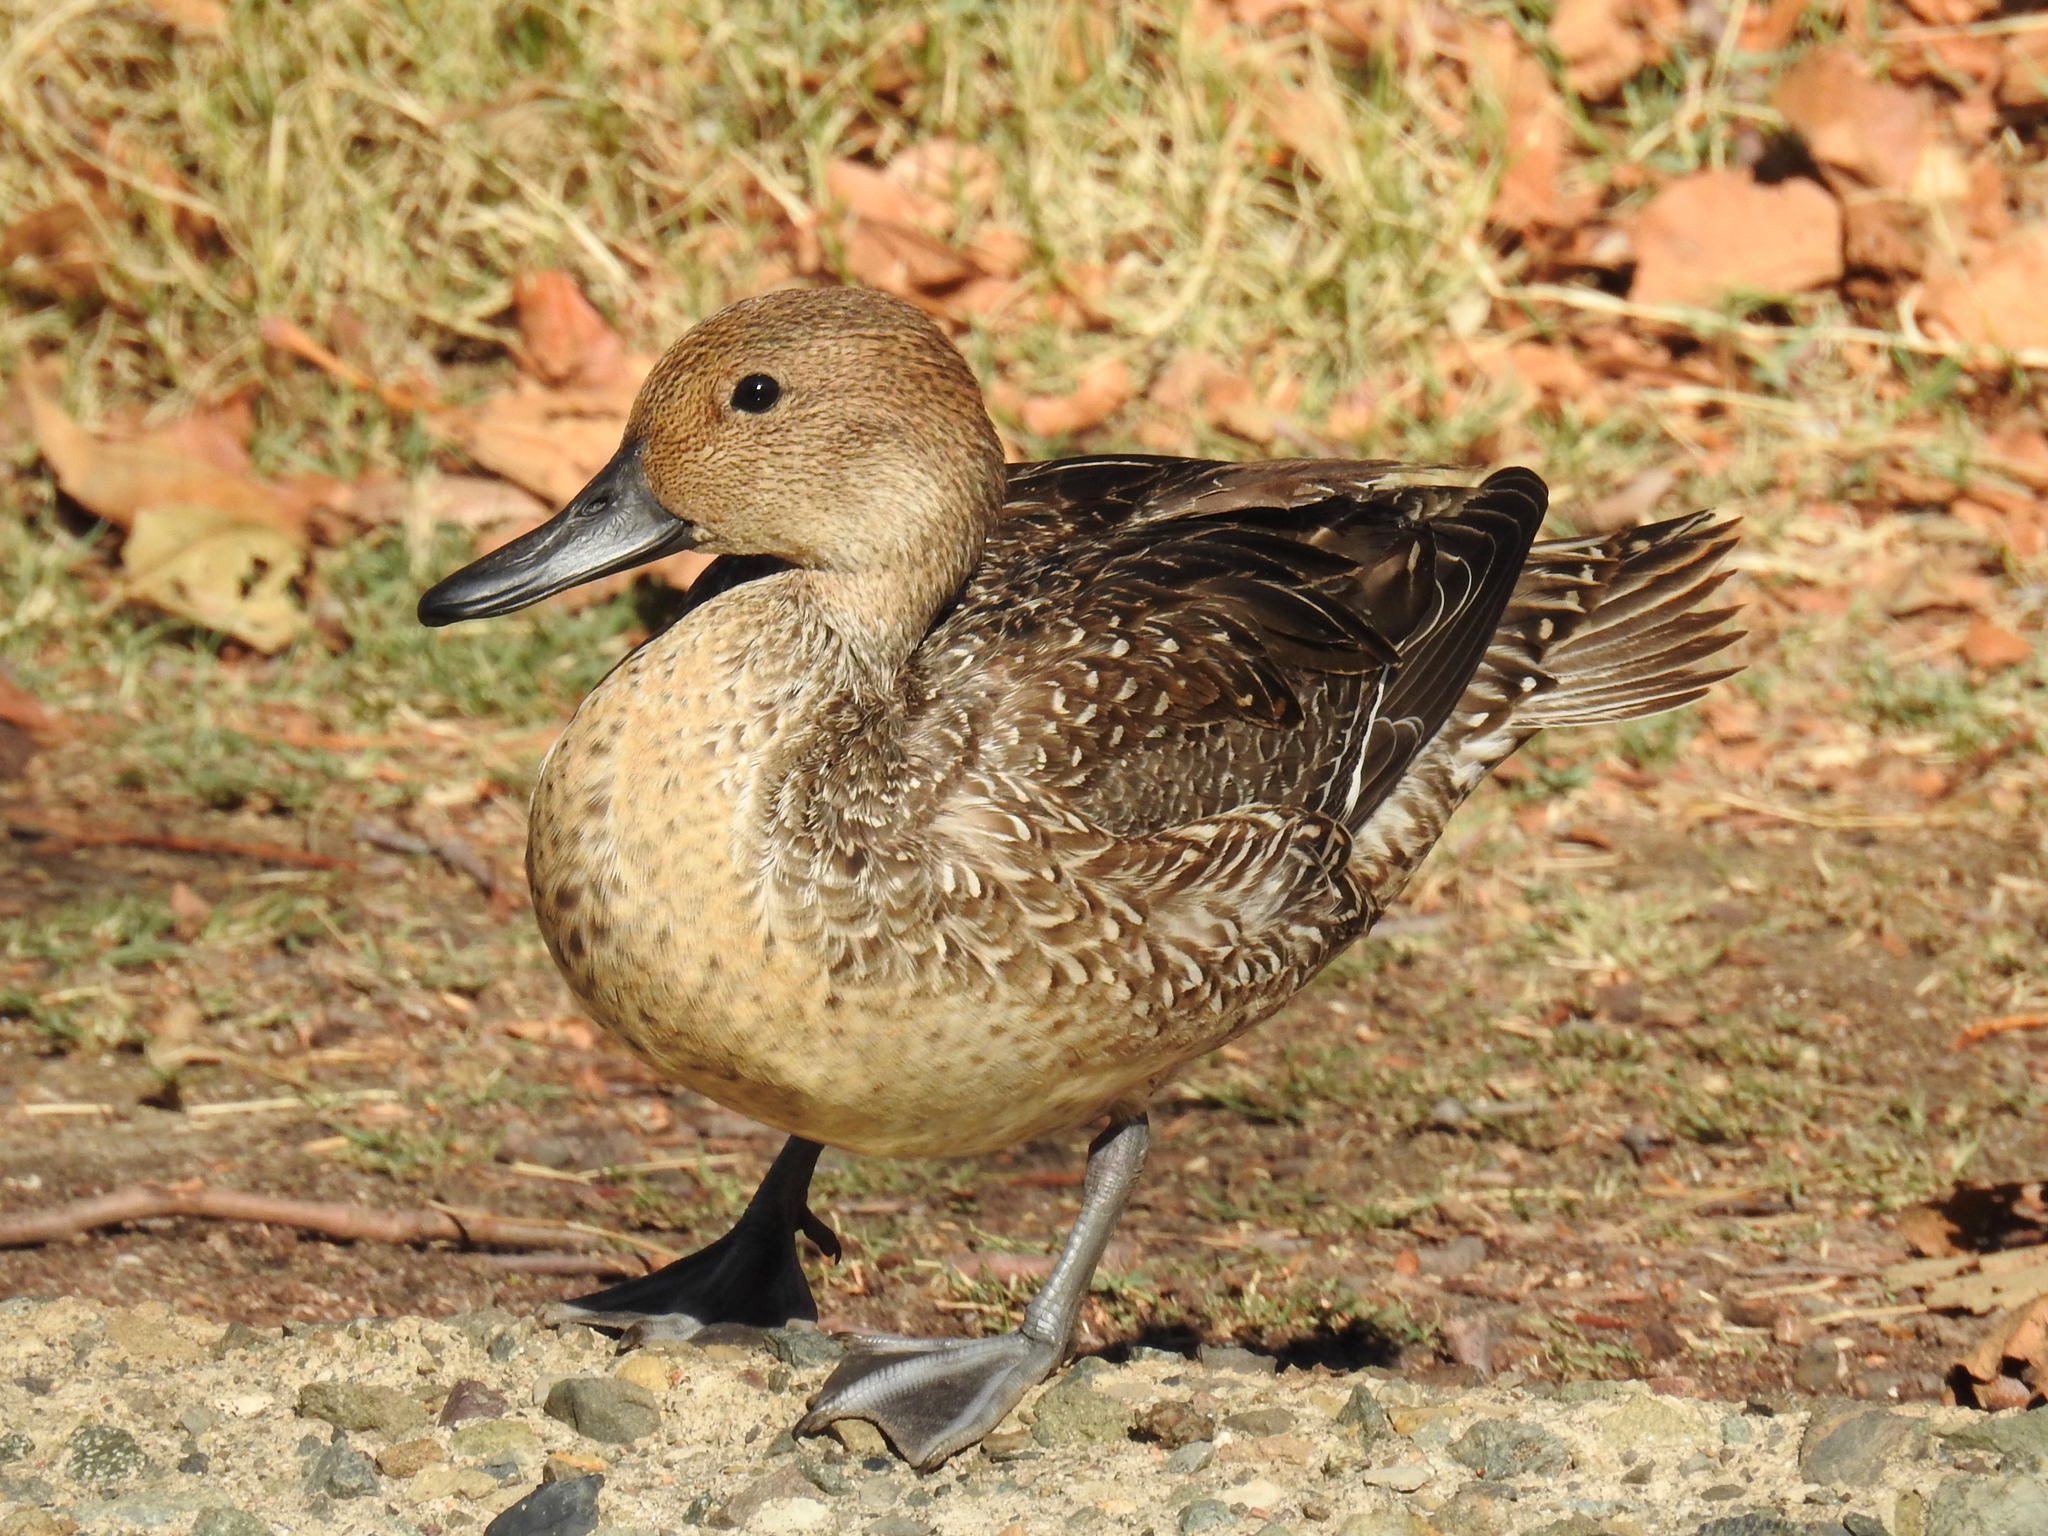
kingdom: Animalia
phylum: Chordata
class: Aves
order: Anseriformes
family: Anatidae
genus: Anas
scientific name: Anas acuta
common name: Northern pintail
